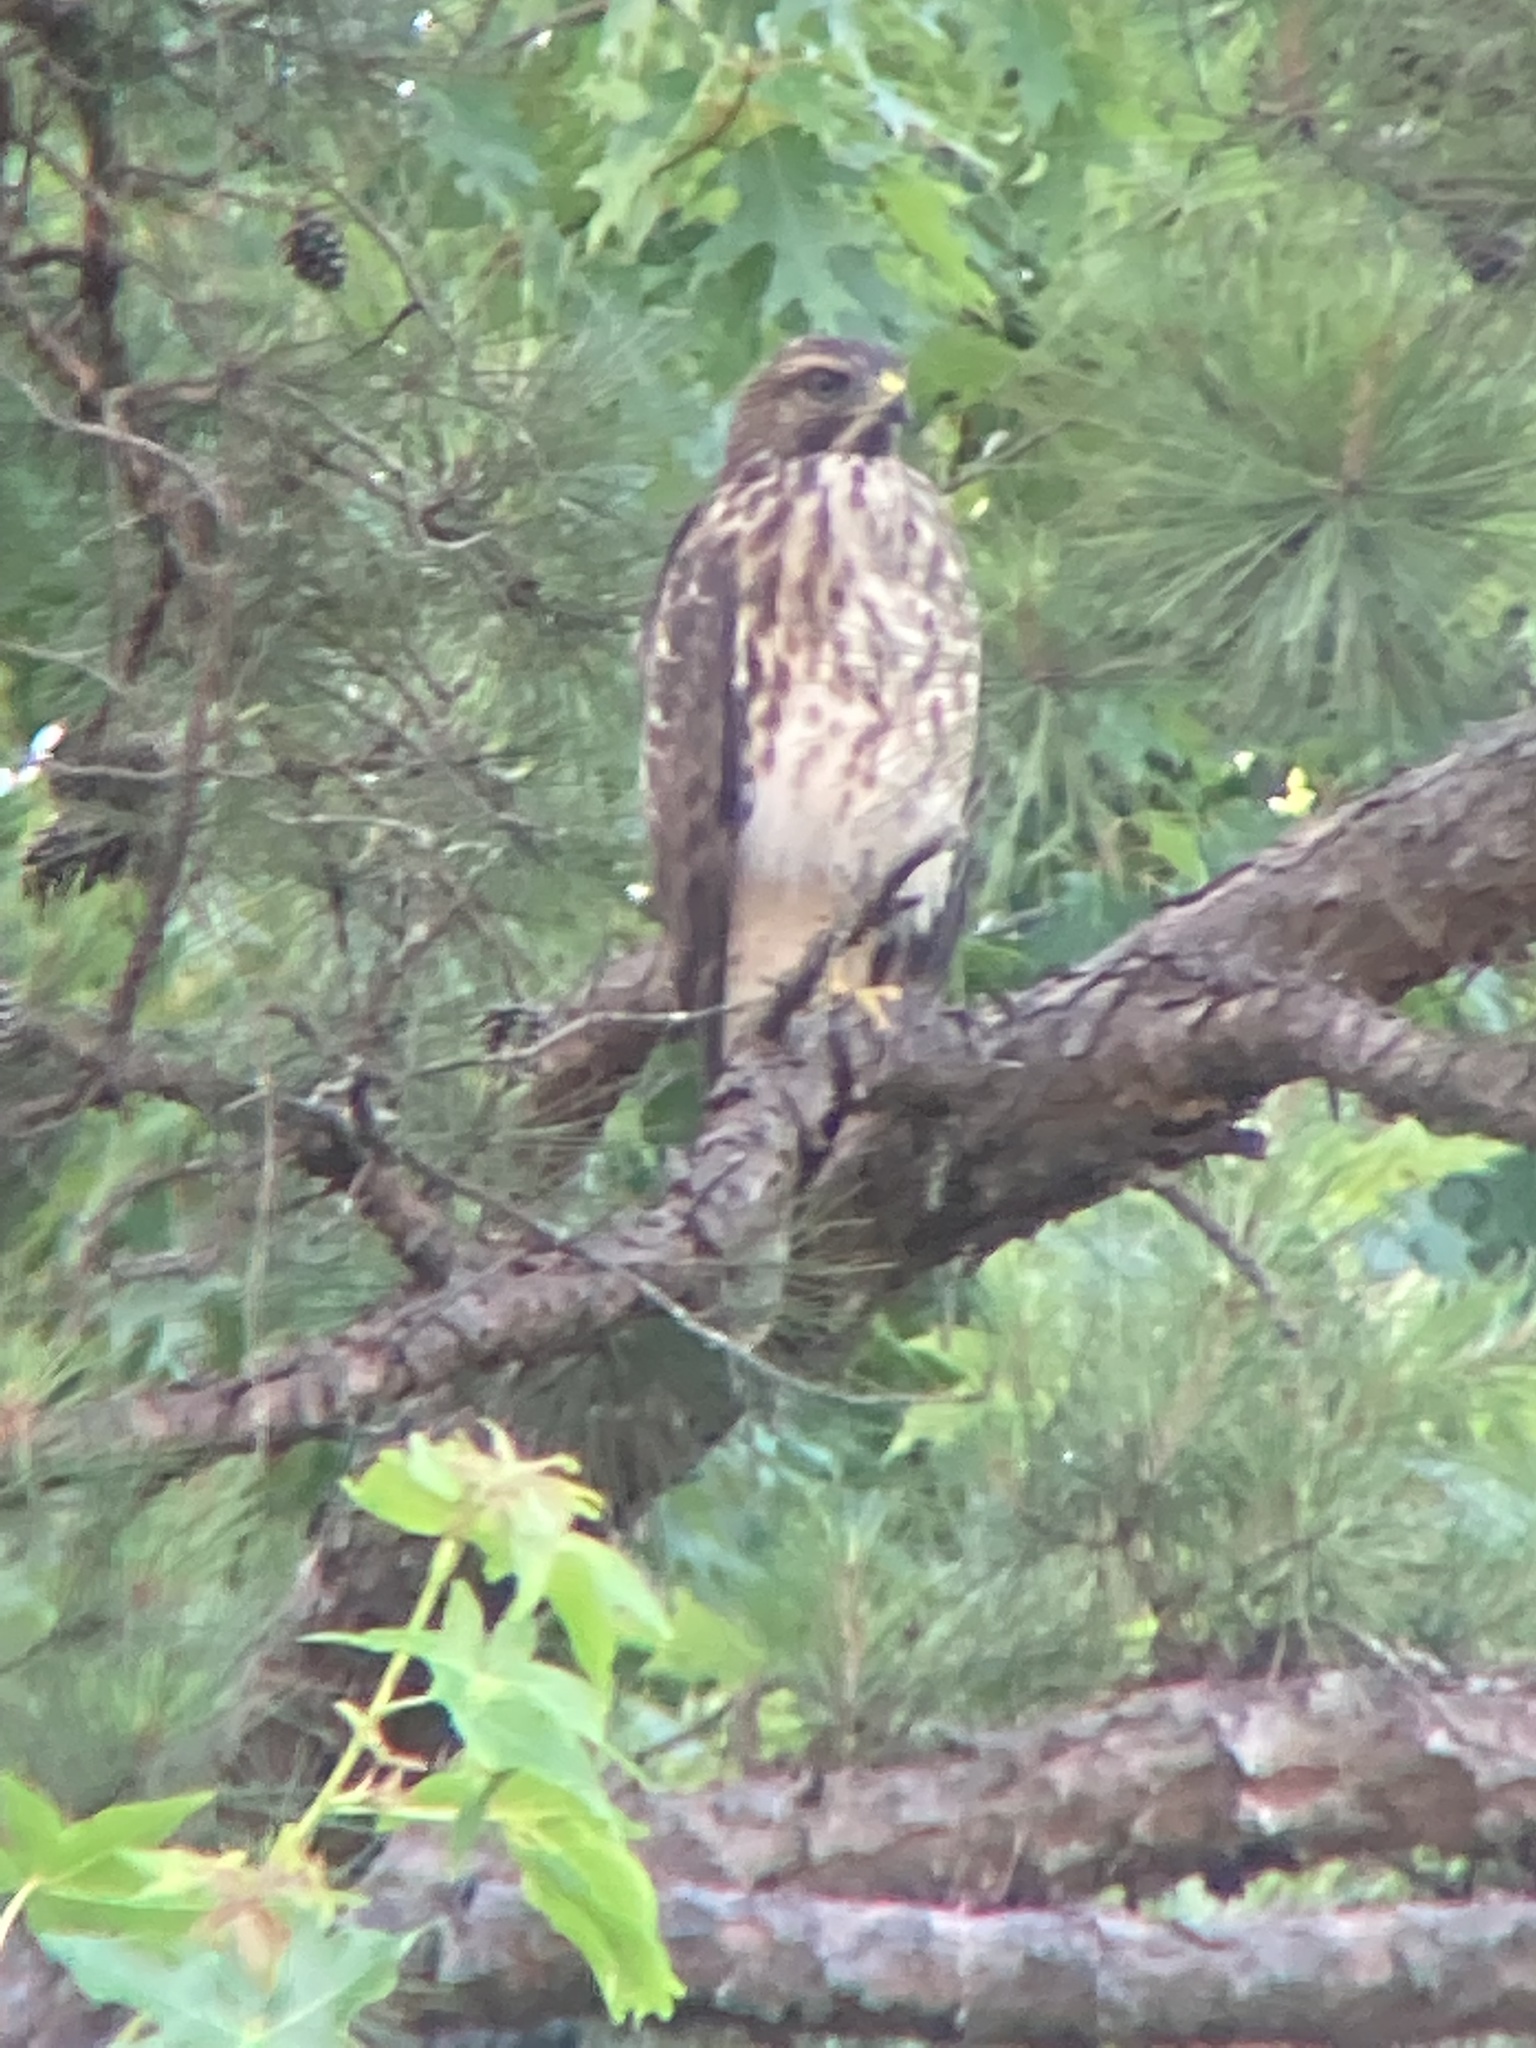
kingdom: Animalia
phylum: Chordata
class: Aves
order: Accipitriformes
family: Accipitridae
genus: Buteo
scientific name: Buteo lineatus
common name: Red-shouldered hawk
